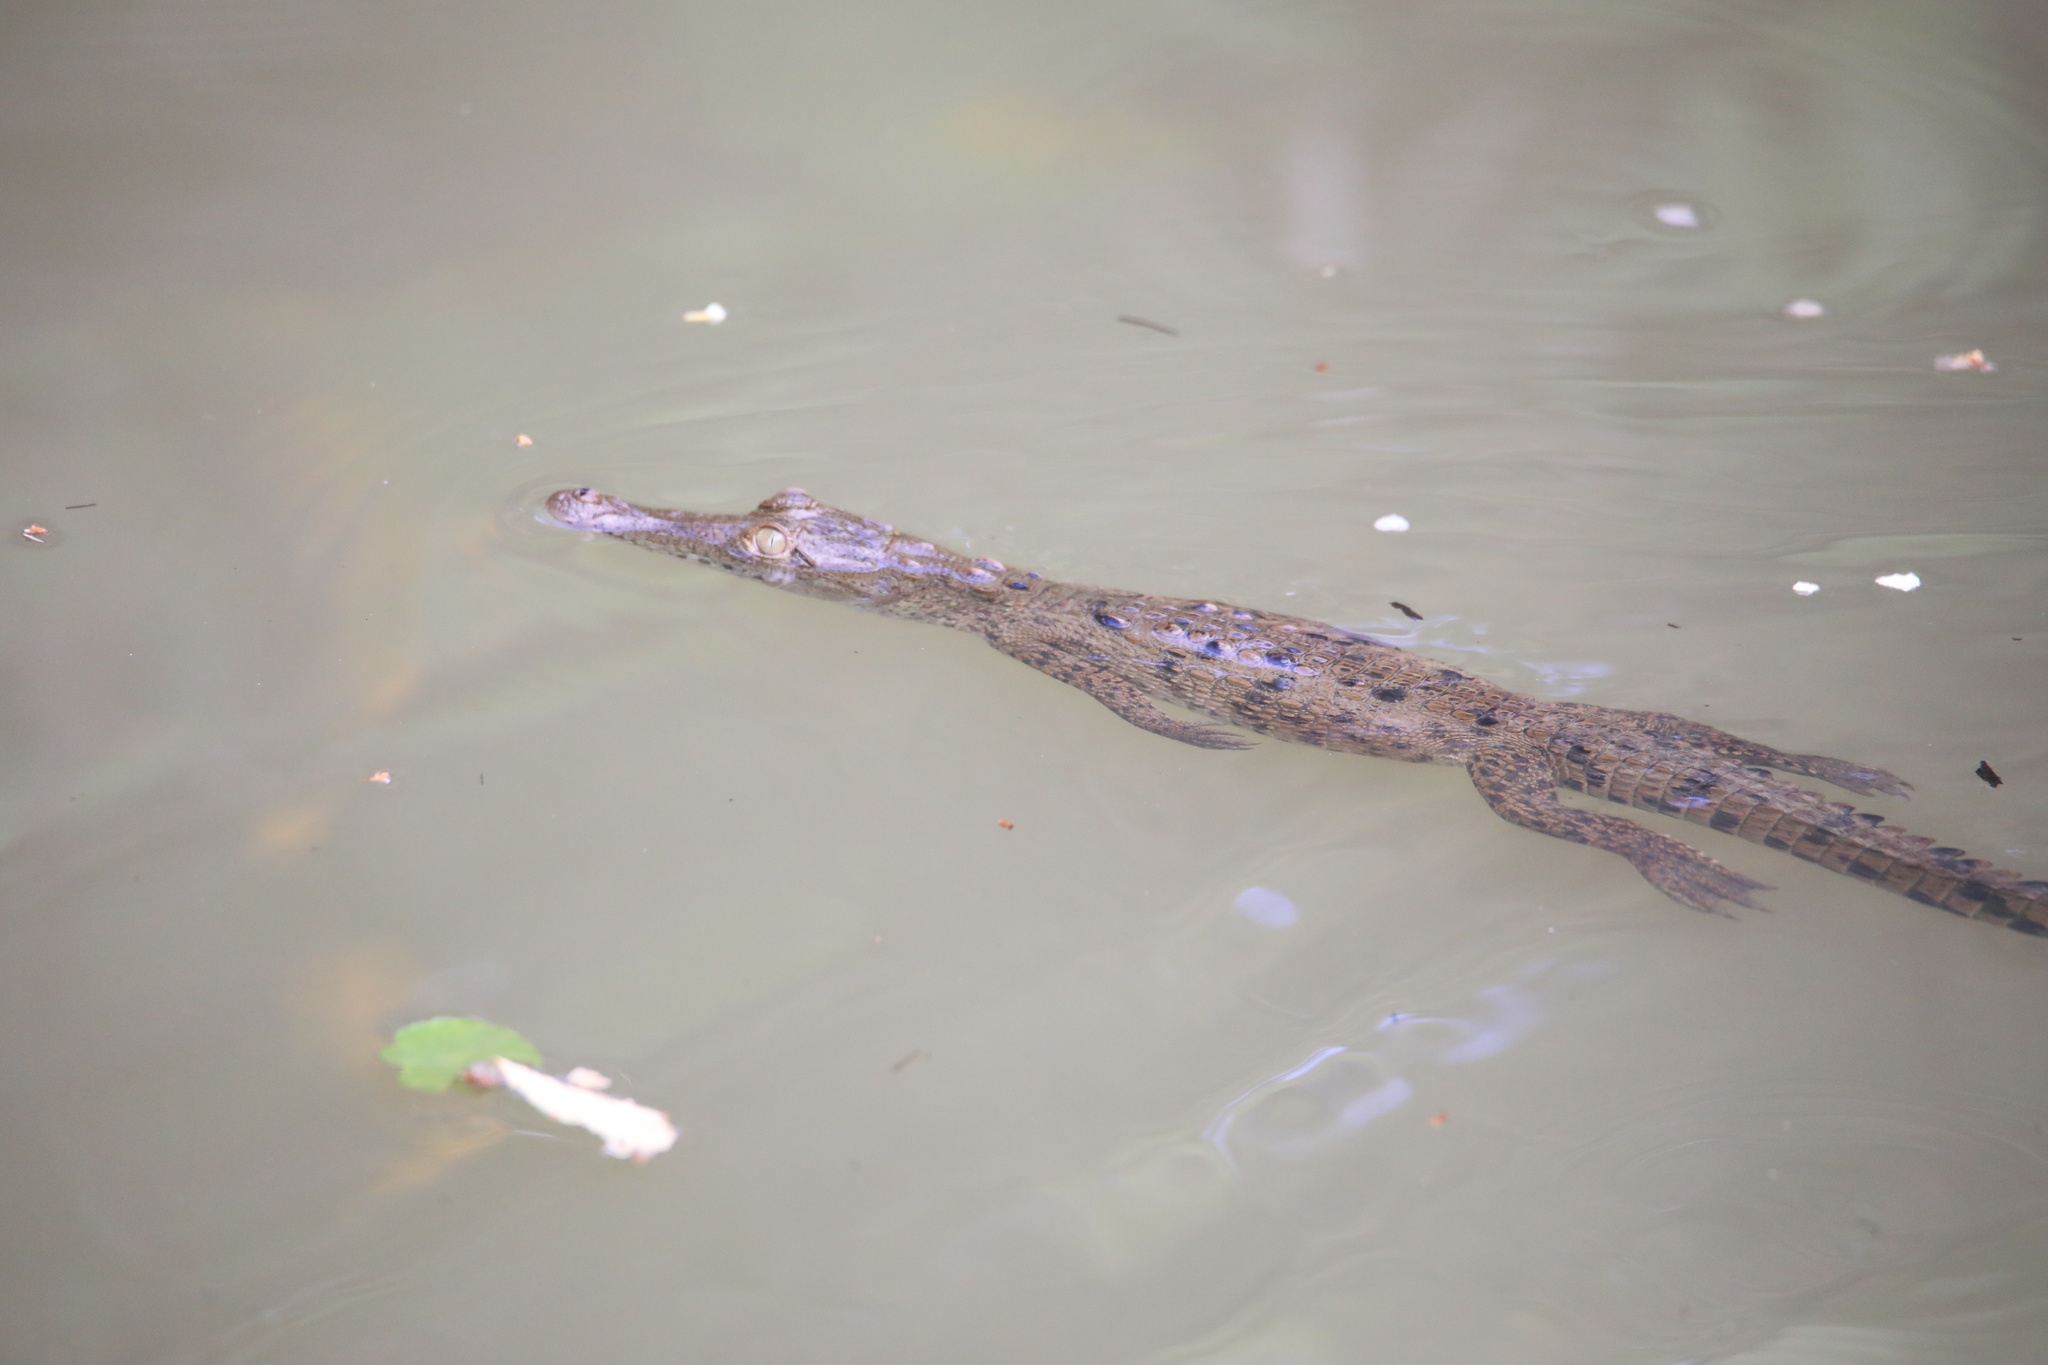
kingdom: Animalia
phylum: Chordata
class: Crocodylia
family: Crocodylidae
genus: Crocodylus
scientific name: Crocodylus acutus
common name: American crocodile
